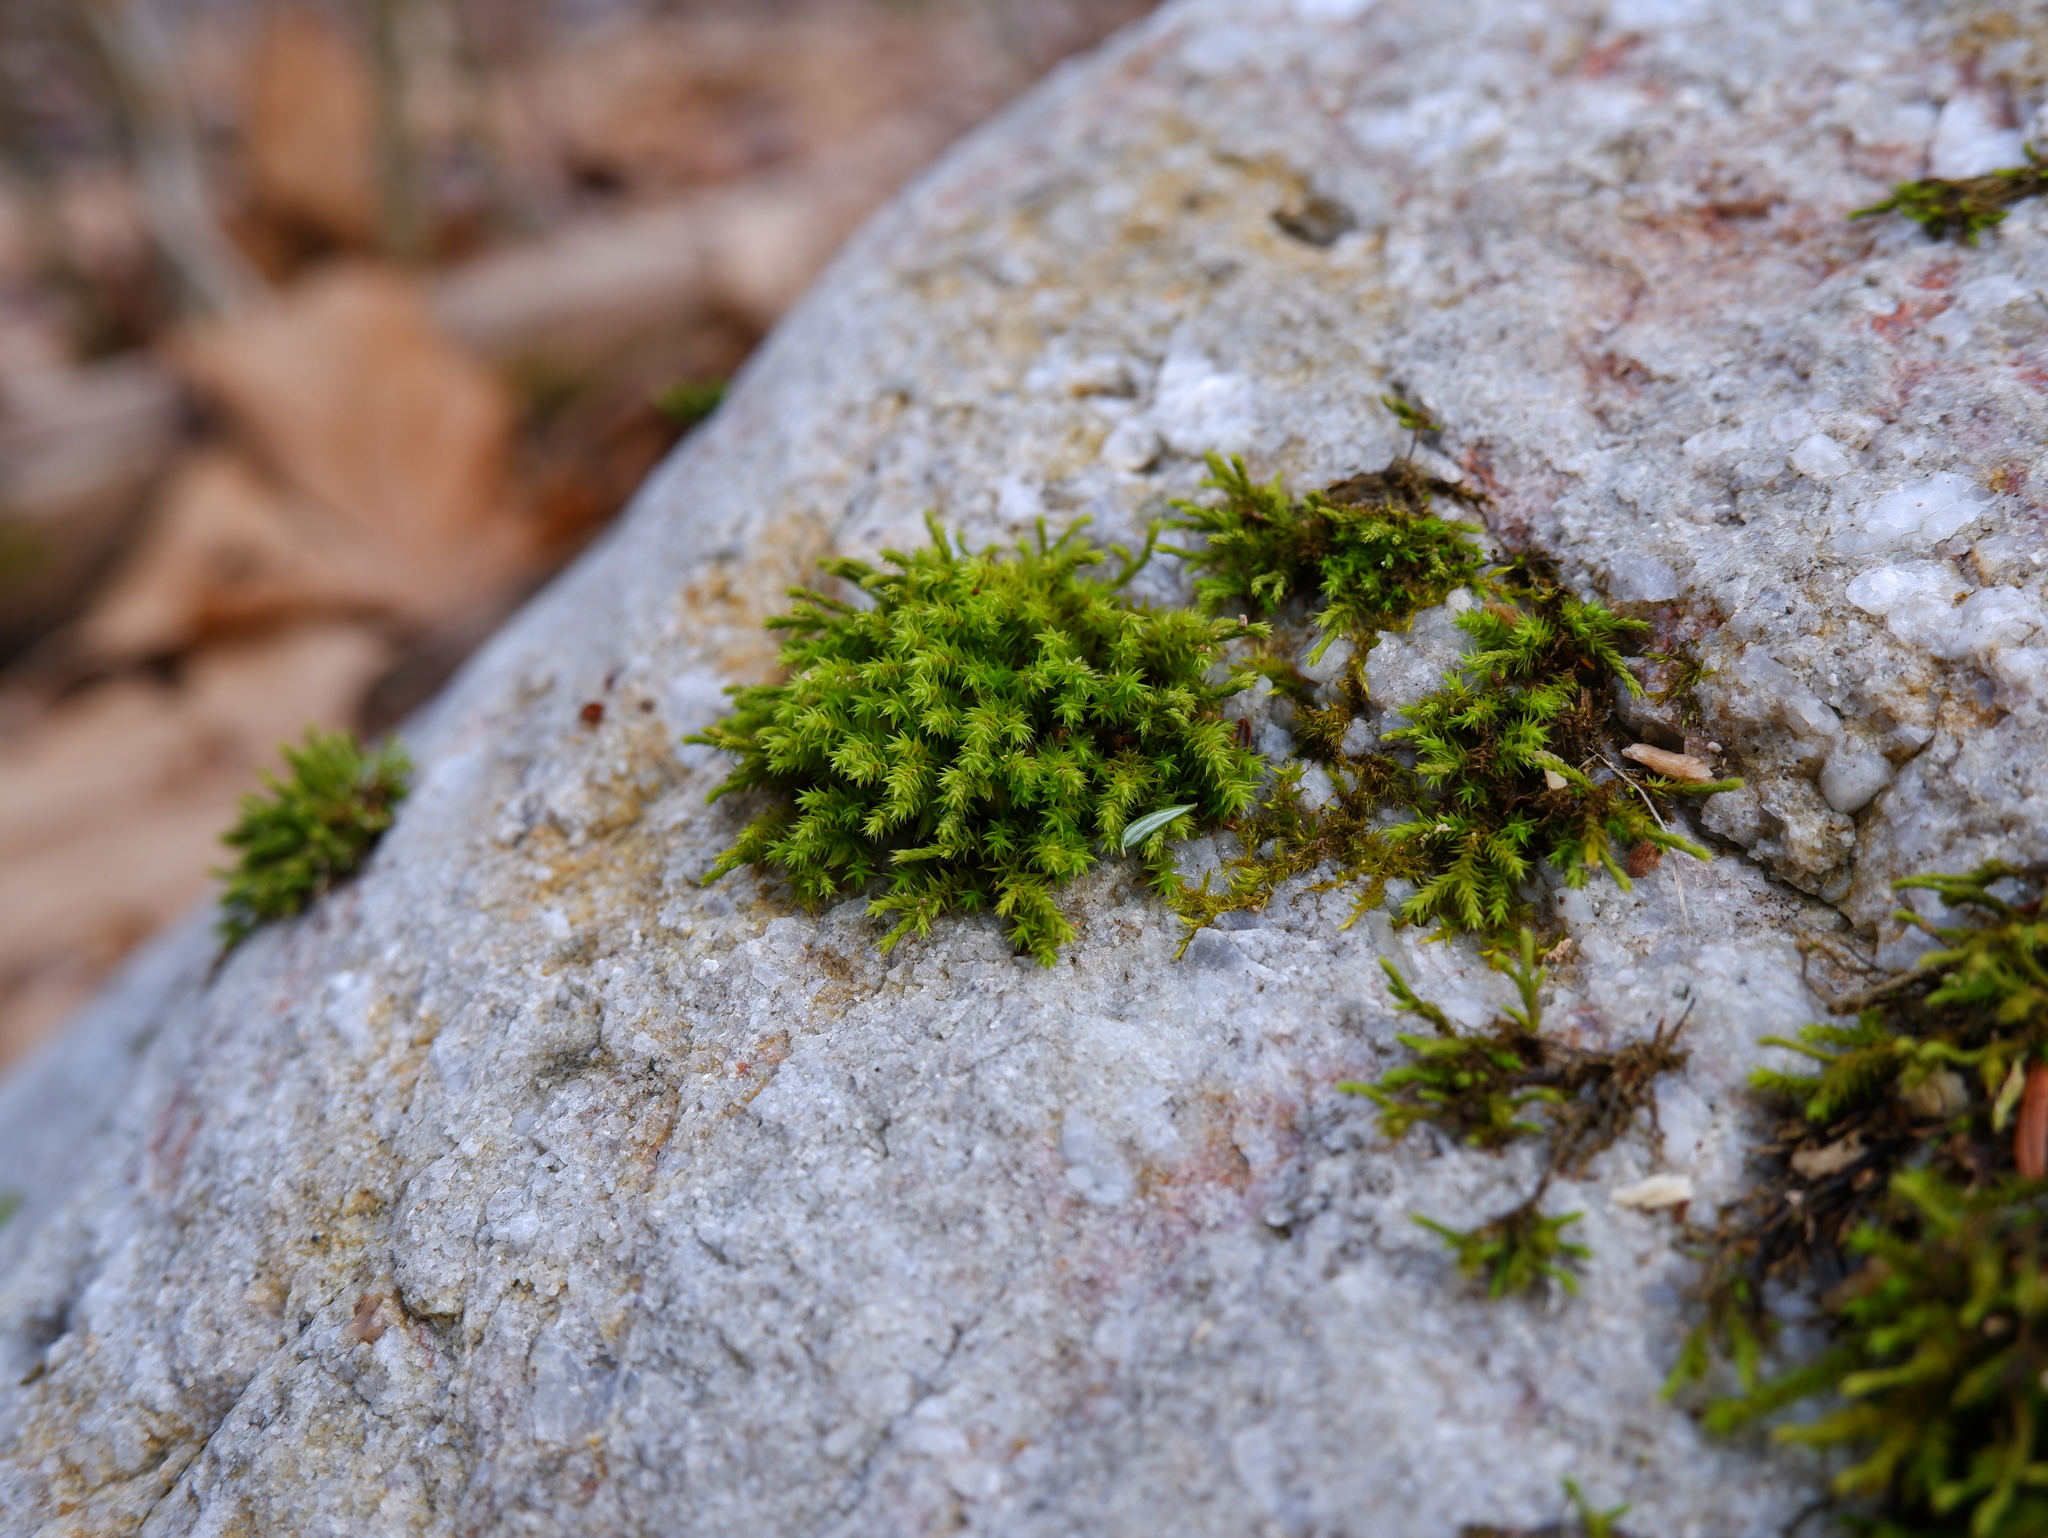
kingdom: Plantae
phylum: Bryophyta
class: Bryopsida
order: Hedwigiales
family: Hedwigiaceae
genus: Hedwigia
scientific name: Hedwigia ciliata
